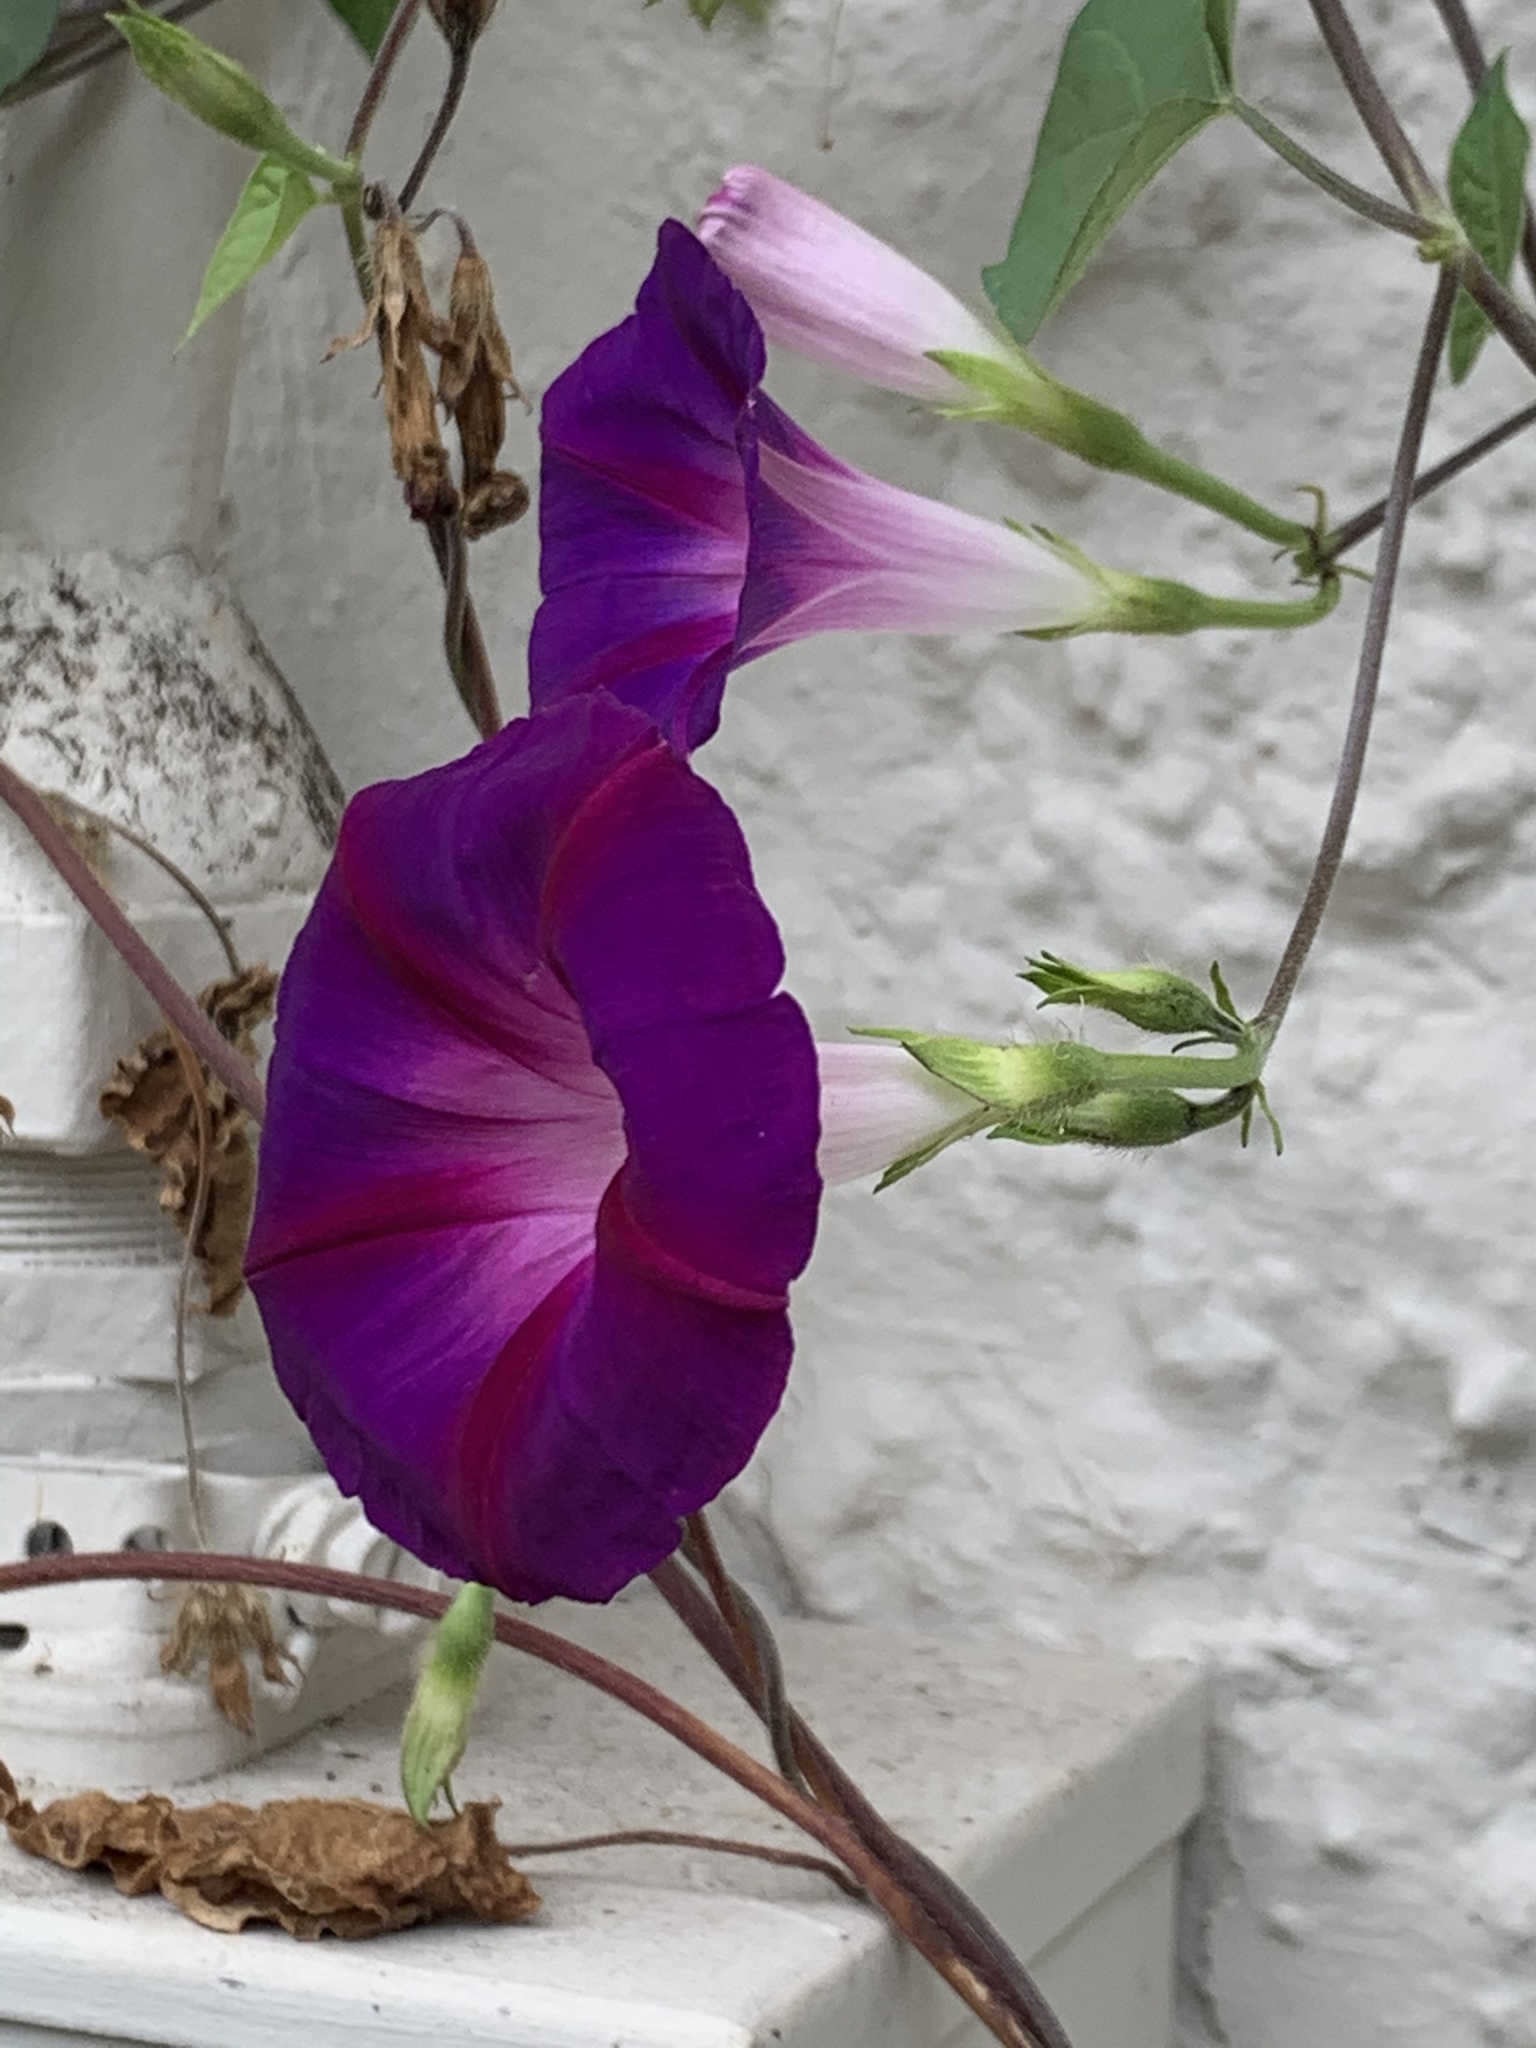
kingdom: Plantae
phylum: Tracheophyta
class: Magnoliopsida
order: Solanales
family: Convolvulaceae
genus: Ipomoea
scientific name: Ipomoea purpurea
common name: Common morning-glory
